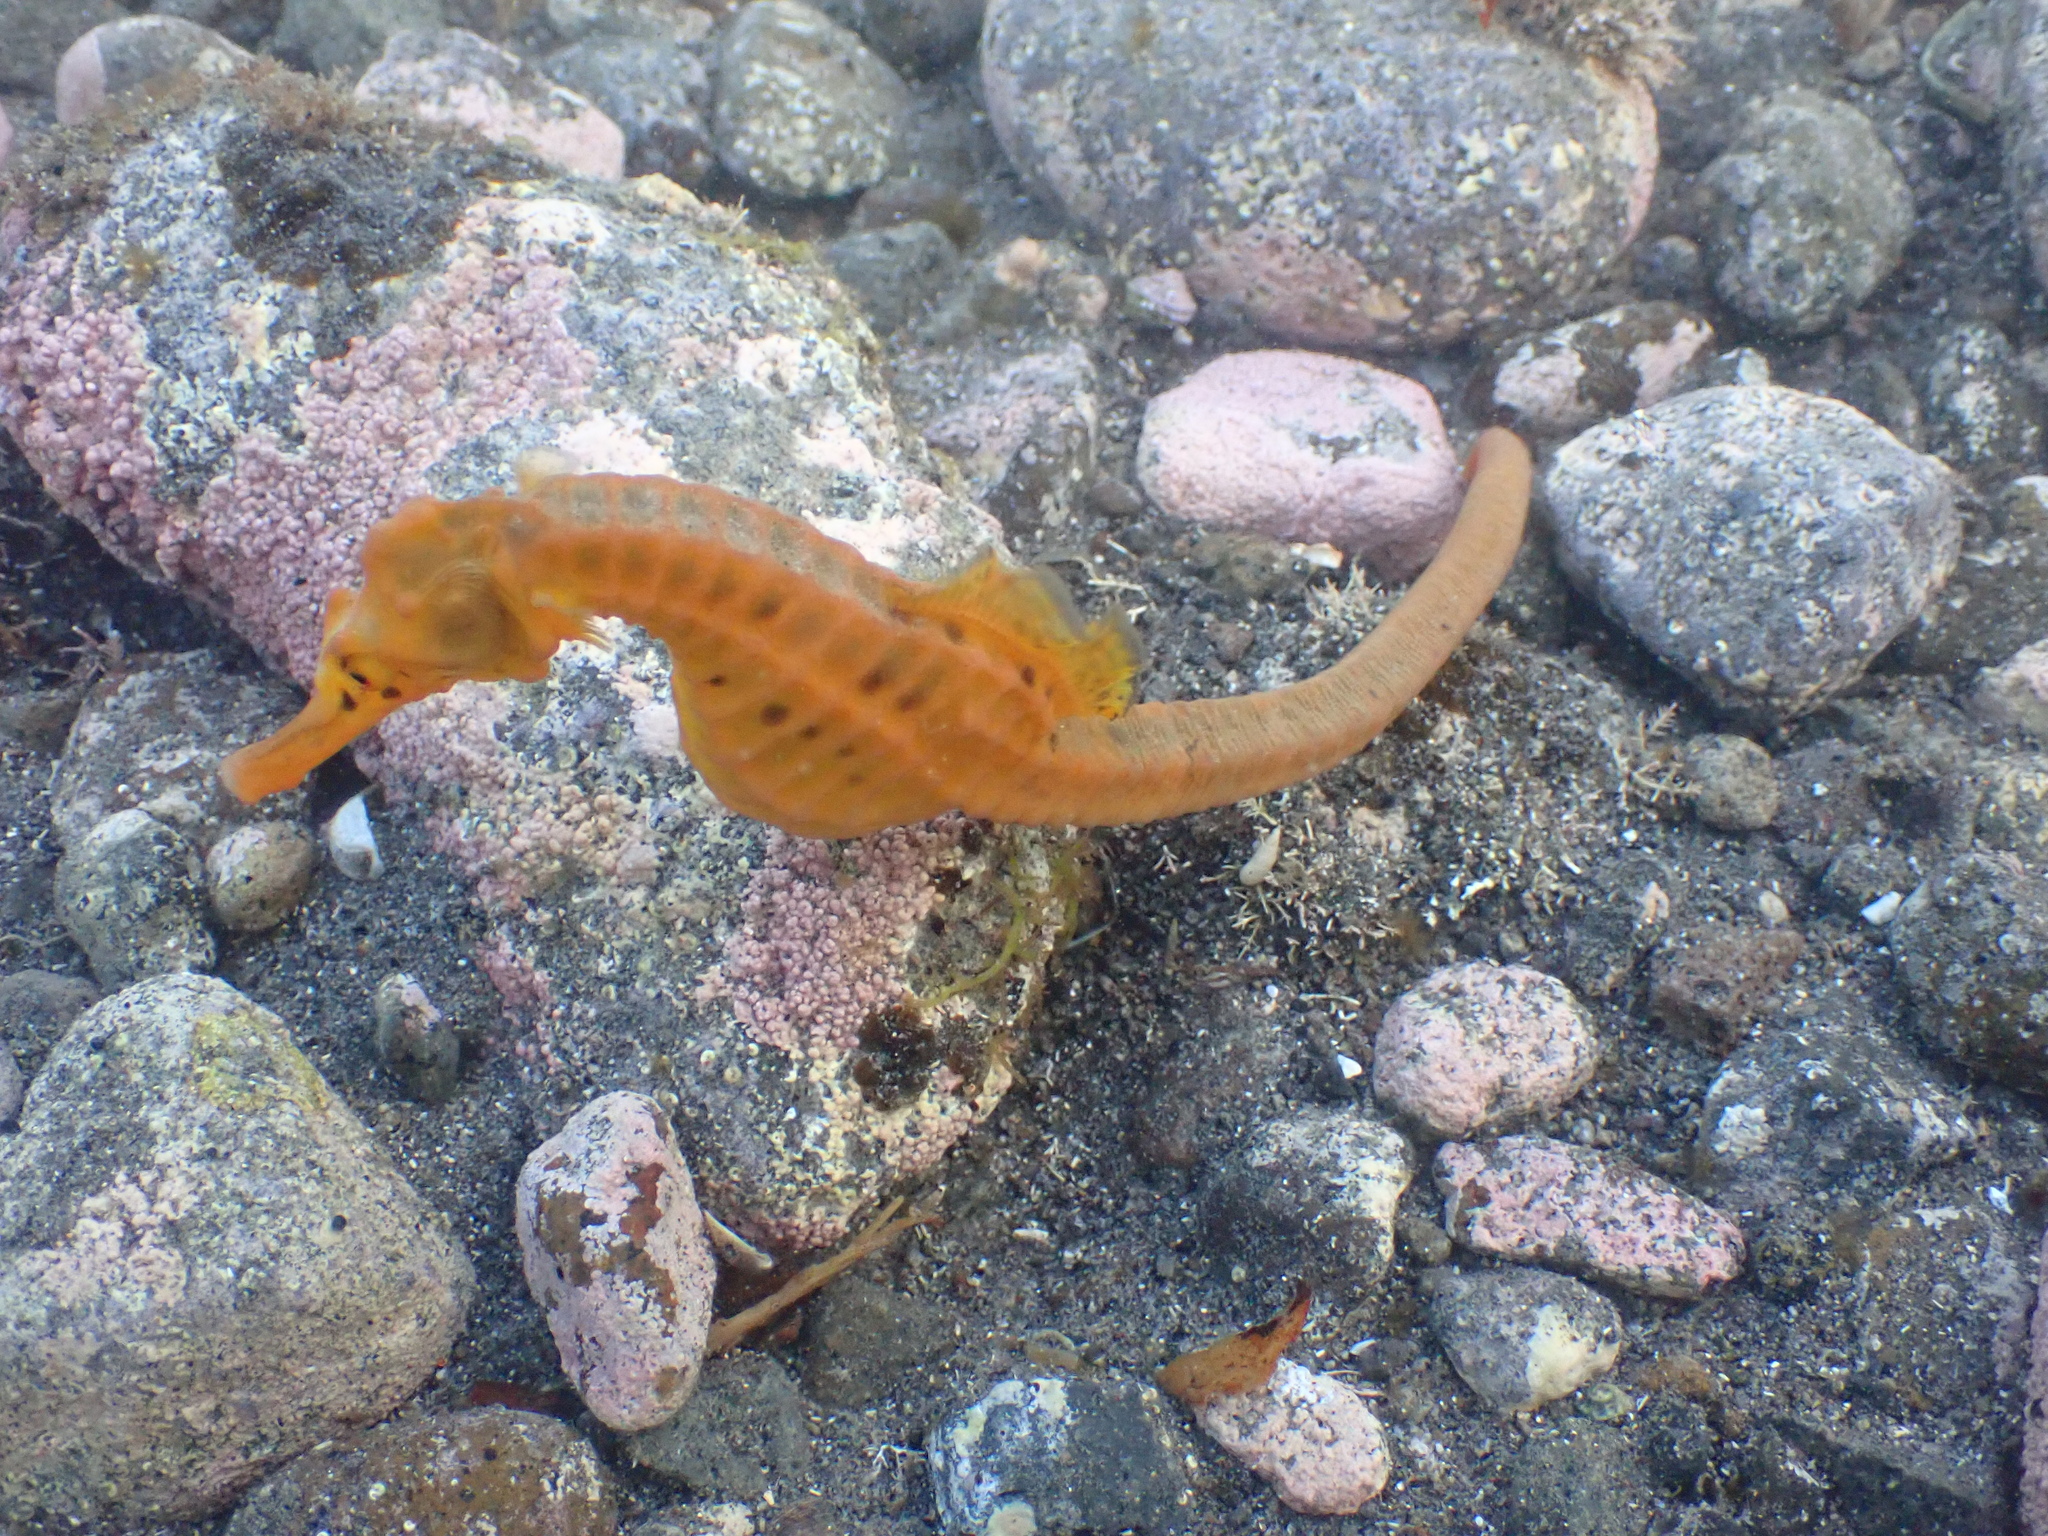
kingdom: Animalia
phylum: Chordata
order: Syngnathiformes
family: Syngnathidae
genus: Hippocampus
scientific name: Hippocampus abdominalis
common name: Big-belly seahorse
